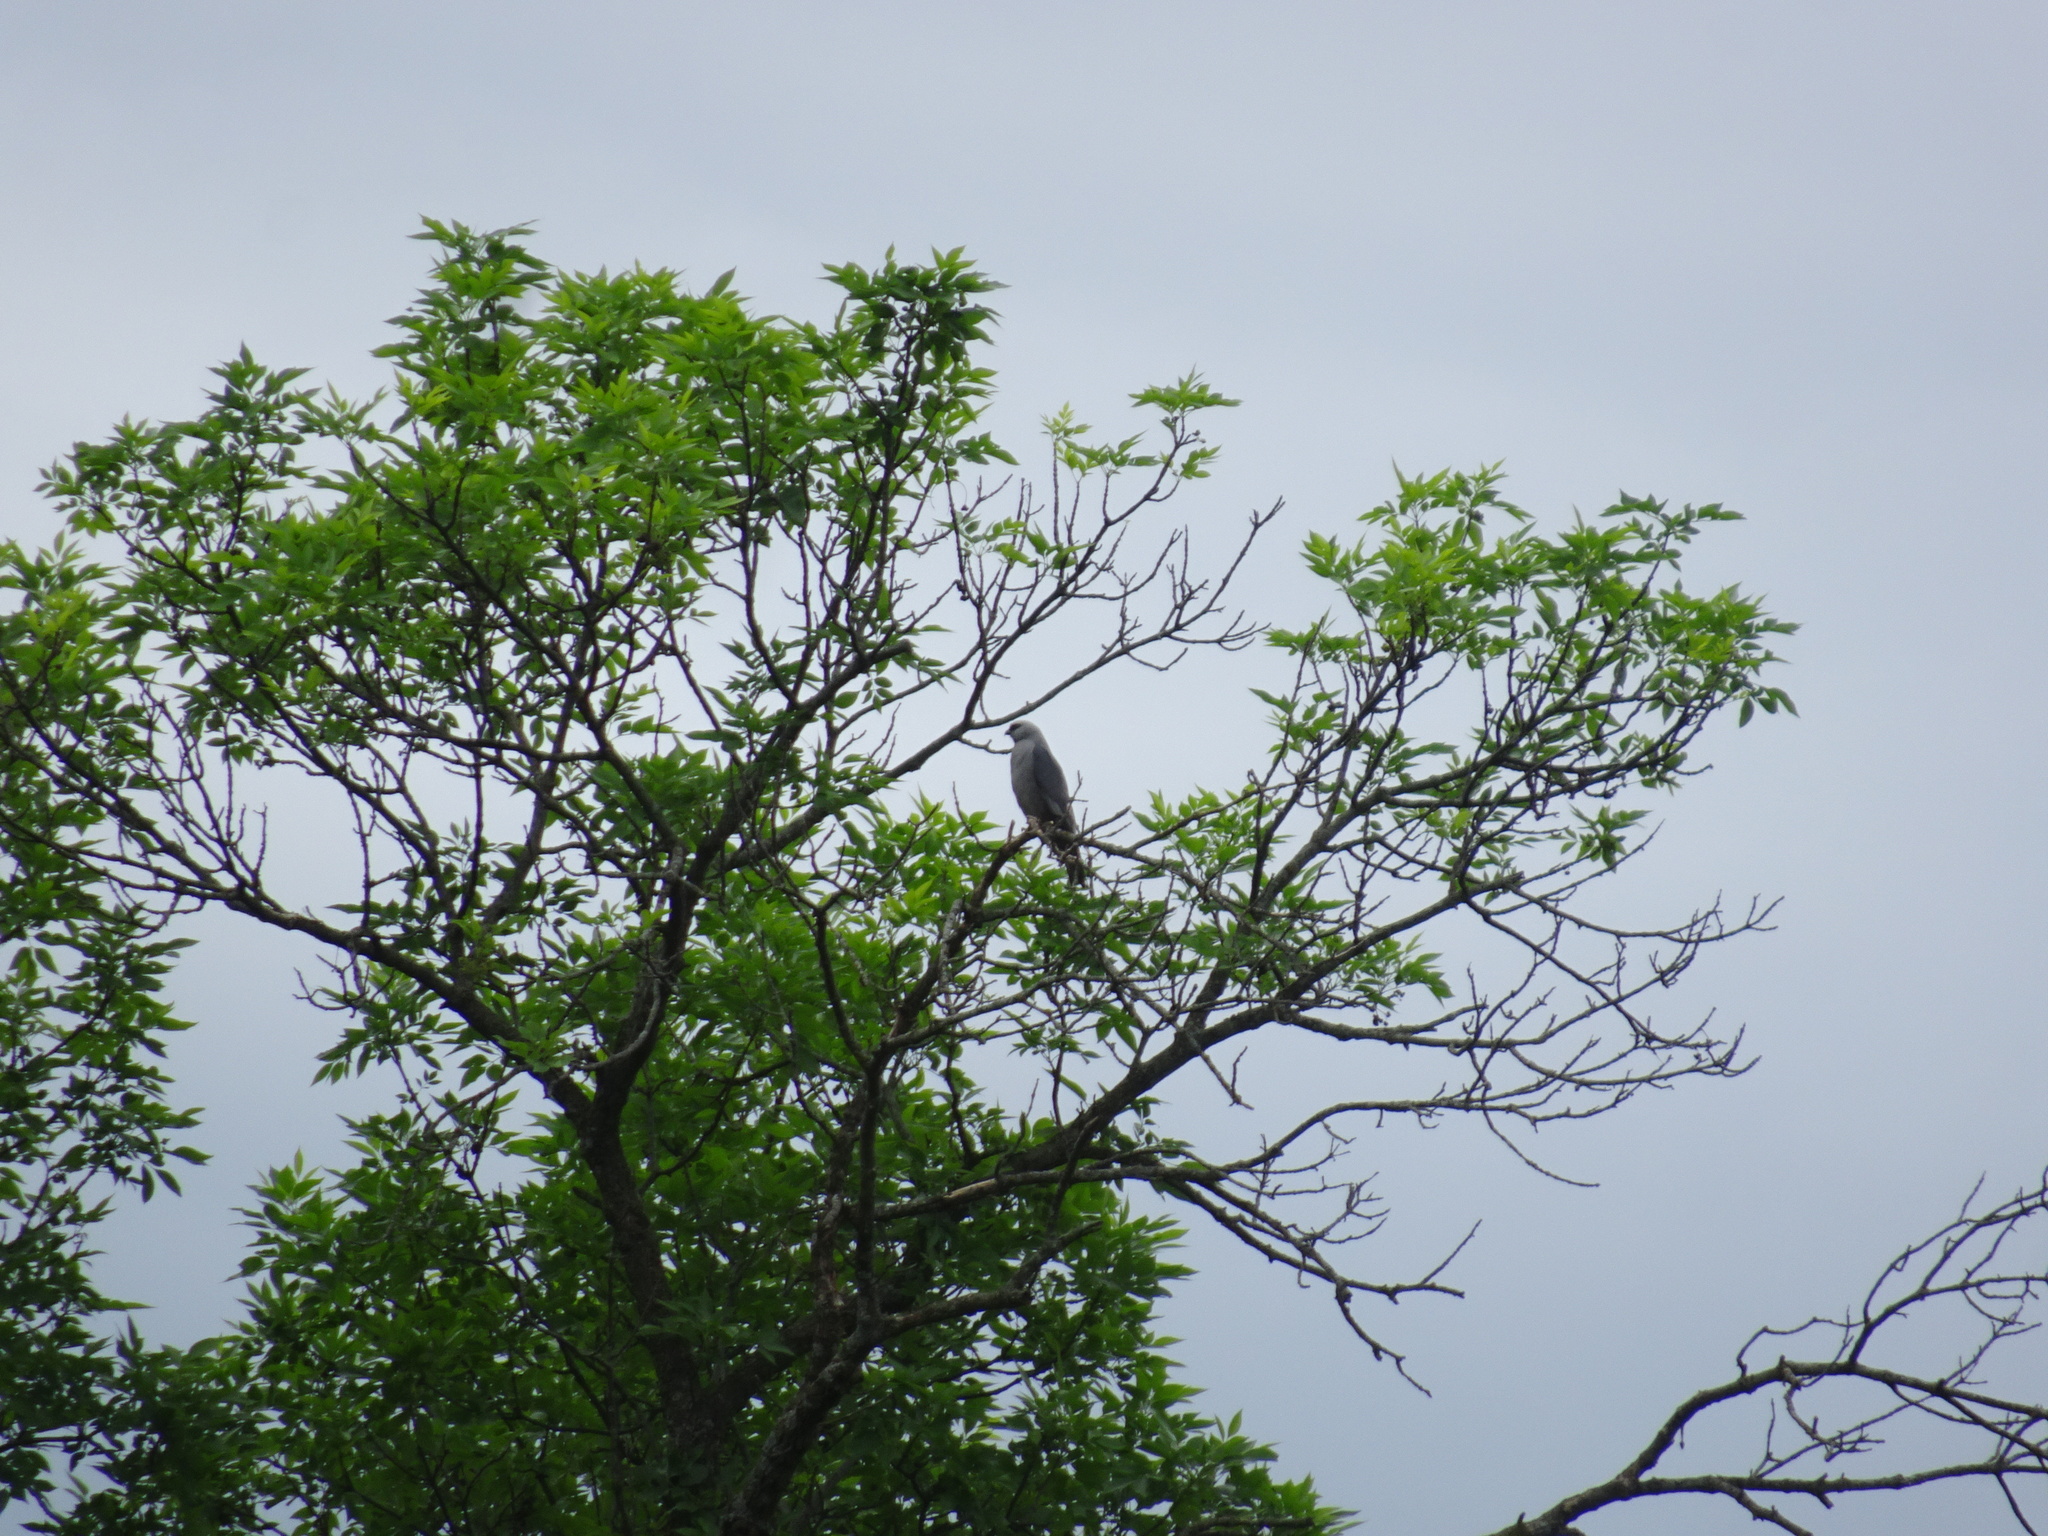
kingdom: Animalia
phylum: Chordata
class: Aves
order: Accipitriformes
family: Accipitridae
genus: Ictinia
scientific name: Ictinia mississippiensis
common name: Mississippi kite
